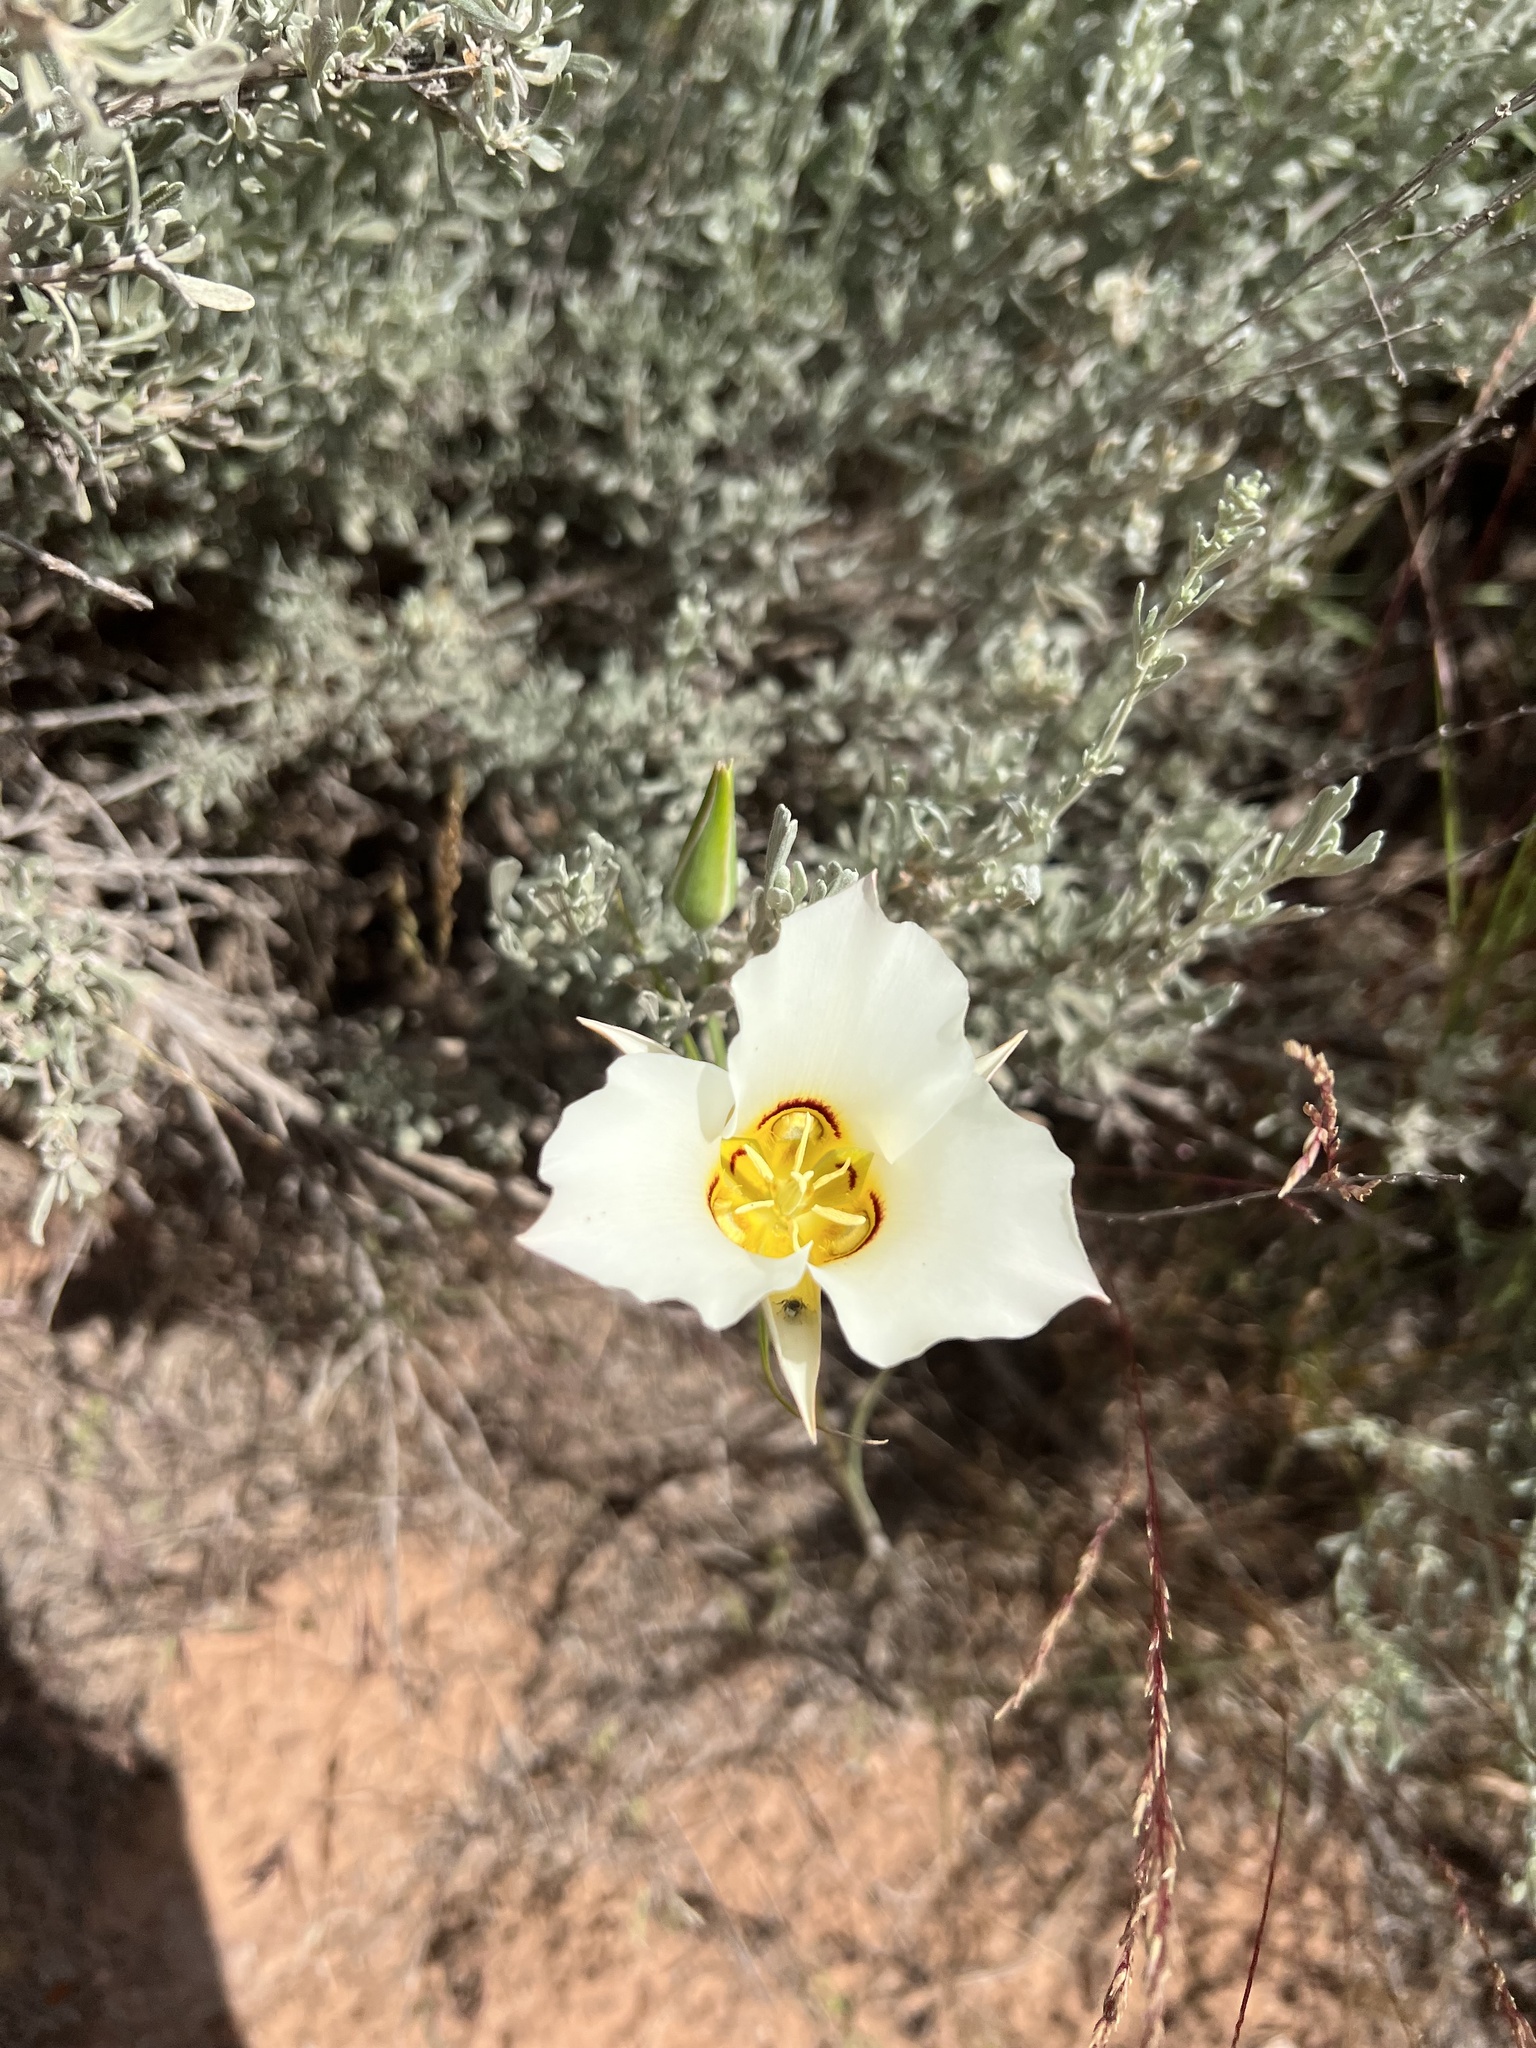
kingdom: Plantae
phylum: Tracheophyta
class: Liliopsida
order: Liliales
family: Liliaceae
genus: Calochortus
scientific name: Calochortus nuttallii
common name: Sego-lily
